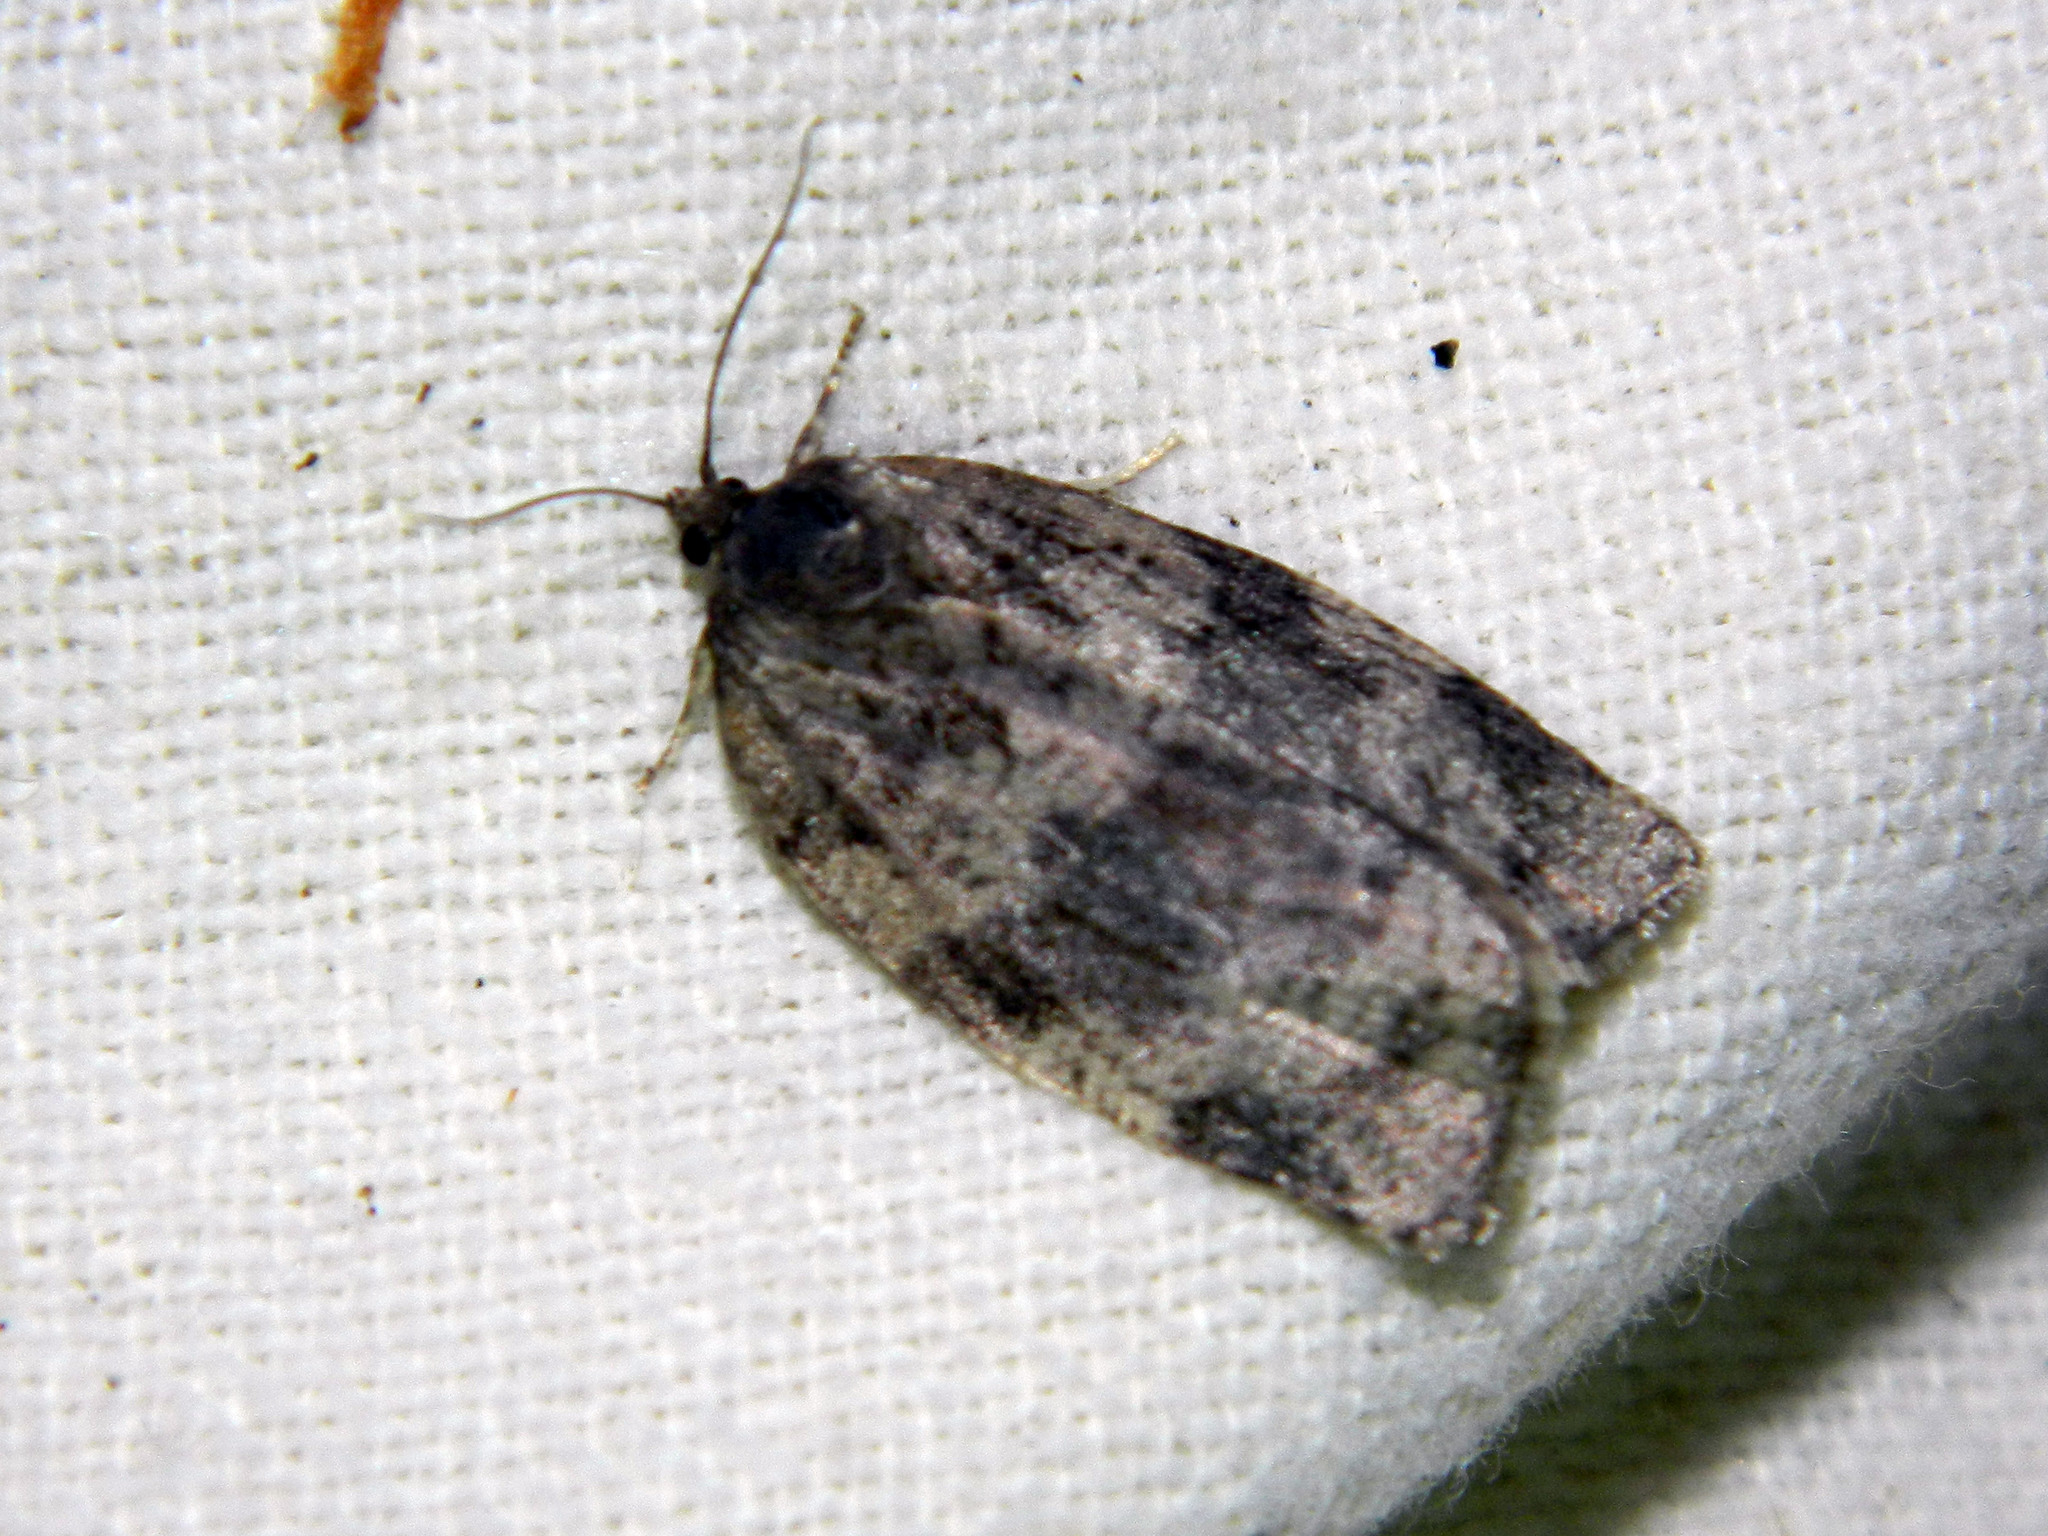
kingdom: Animalia
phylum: Arthropoda
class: Insecta
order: Lepidoptera
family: Tortricidae
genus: Choristoneura
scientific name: Choristoneura conflictana
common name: Large aspen tortrix
